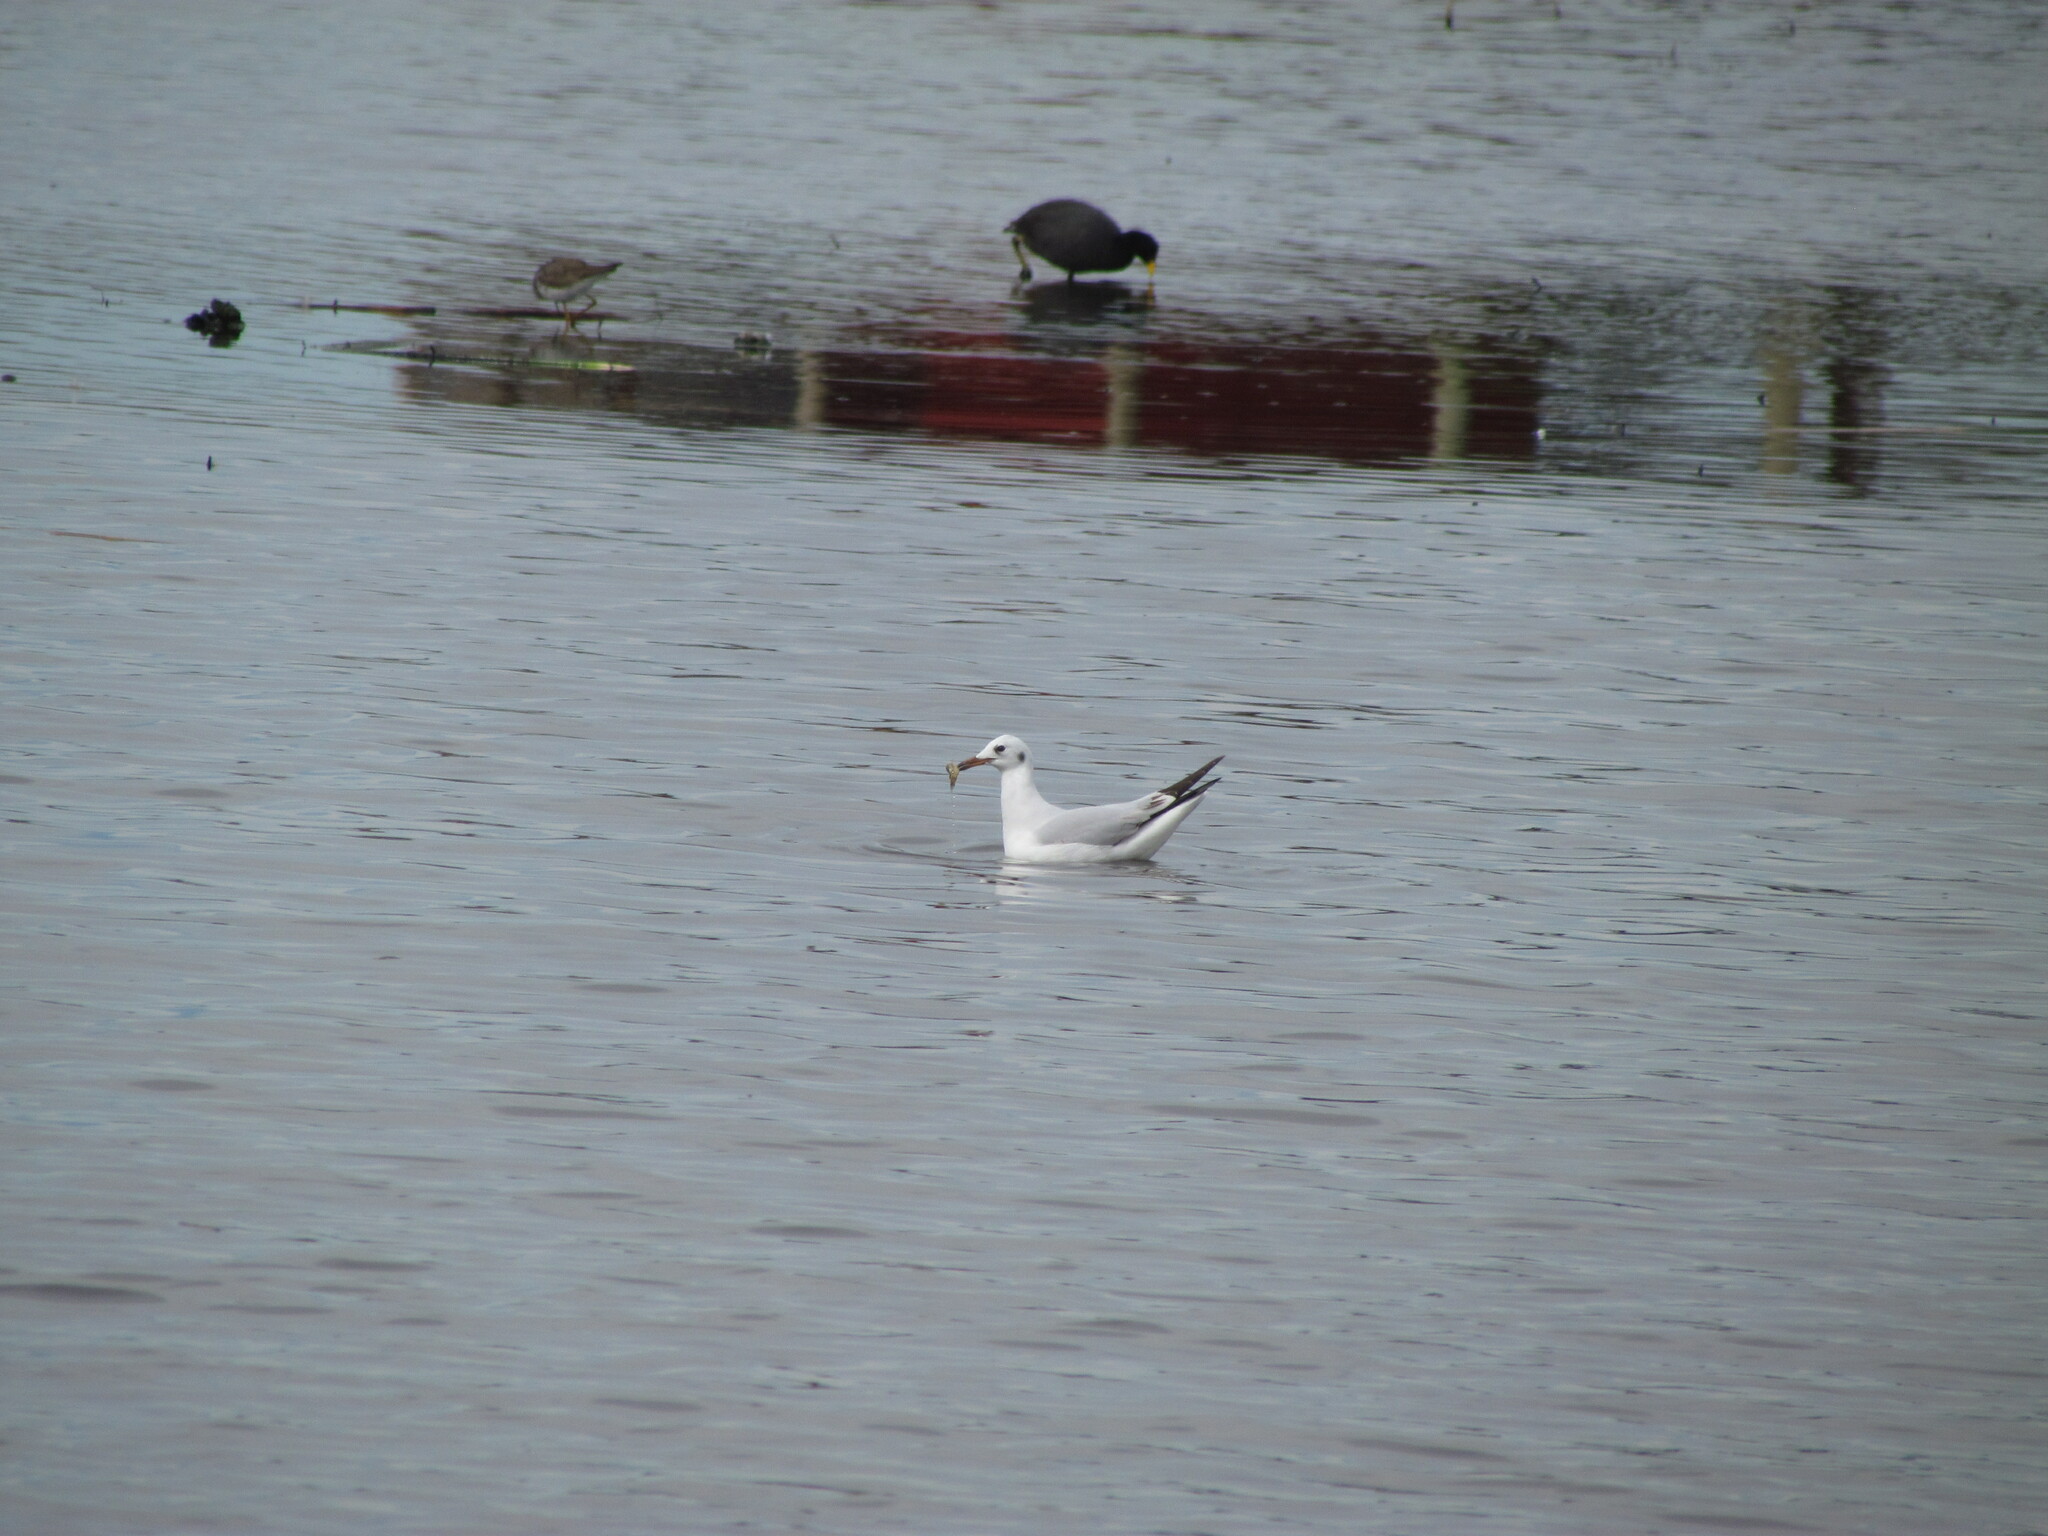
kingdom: Animalia
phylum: Chordata
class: Aves
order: Charadriiformes
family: Laridae
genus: Chroicocephalus
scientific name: Chroicocephalus maculipennis
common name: Brown-hooded gull
